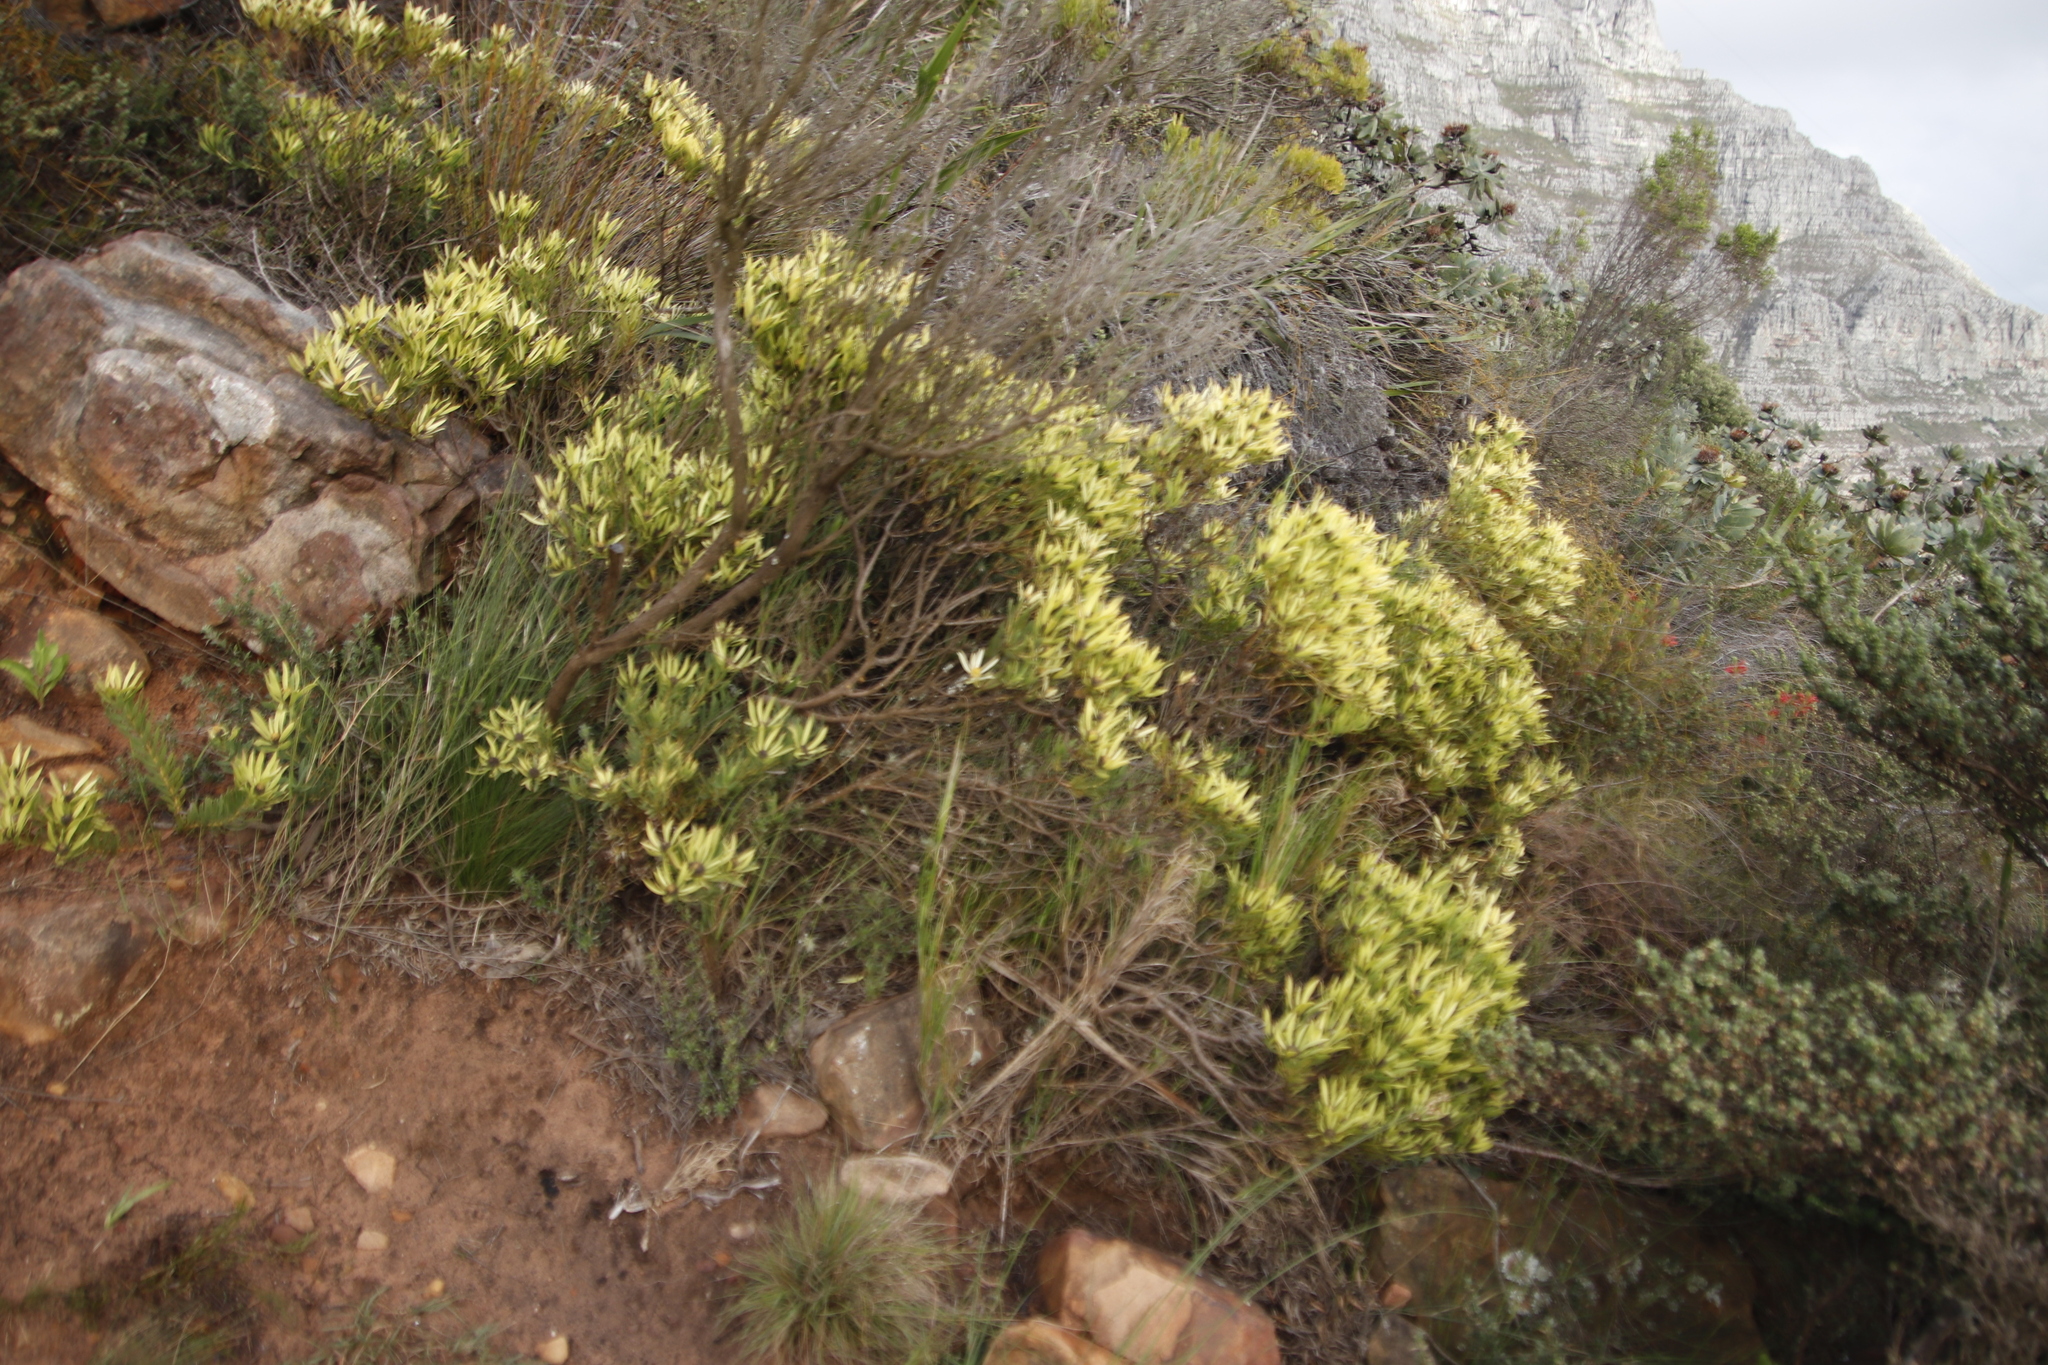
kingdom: Plantae
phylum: Tracheophyta
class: Magnoliopsida
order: Proteales
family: Proteaceae
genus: Leucadendron
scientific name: Leucadendron salignum
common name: Common sunshine conebush
